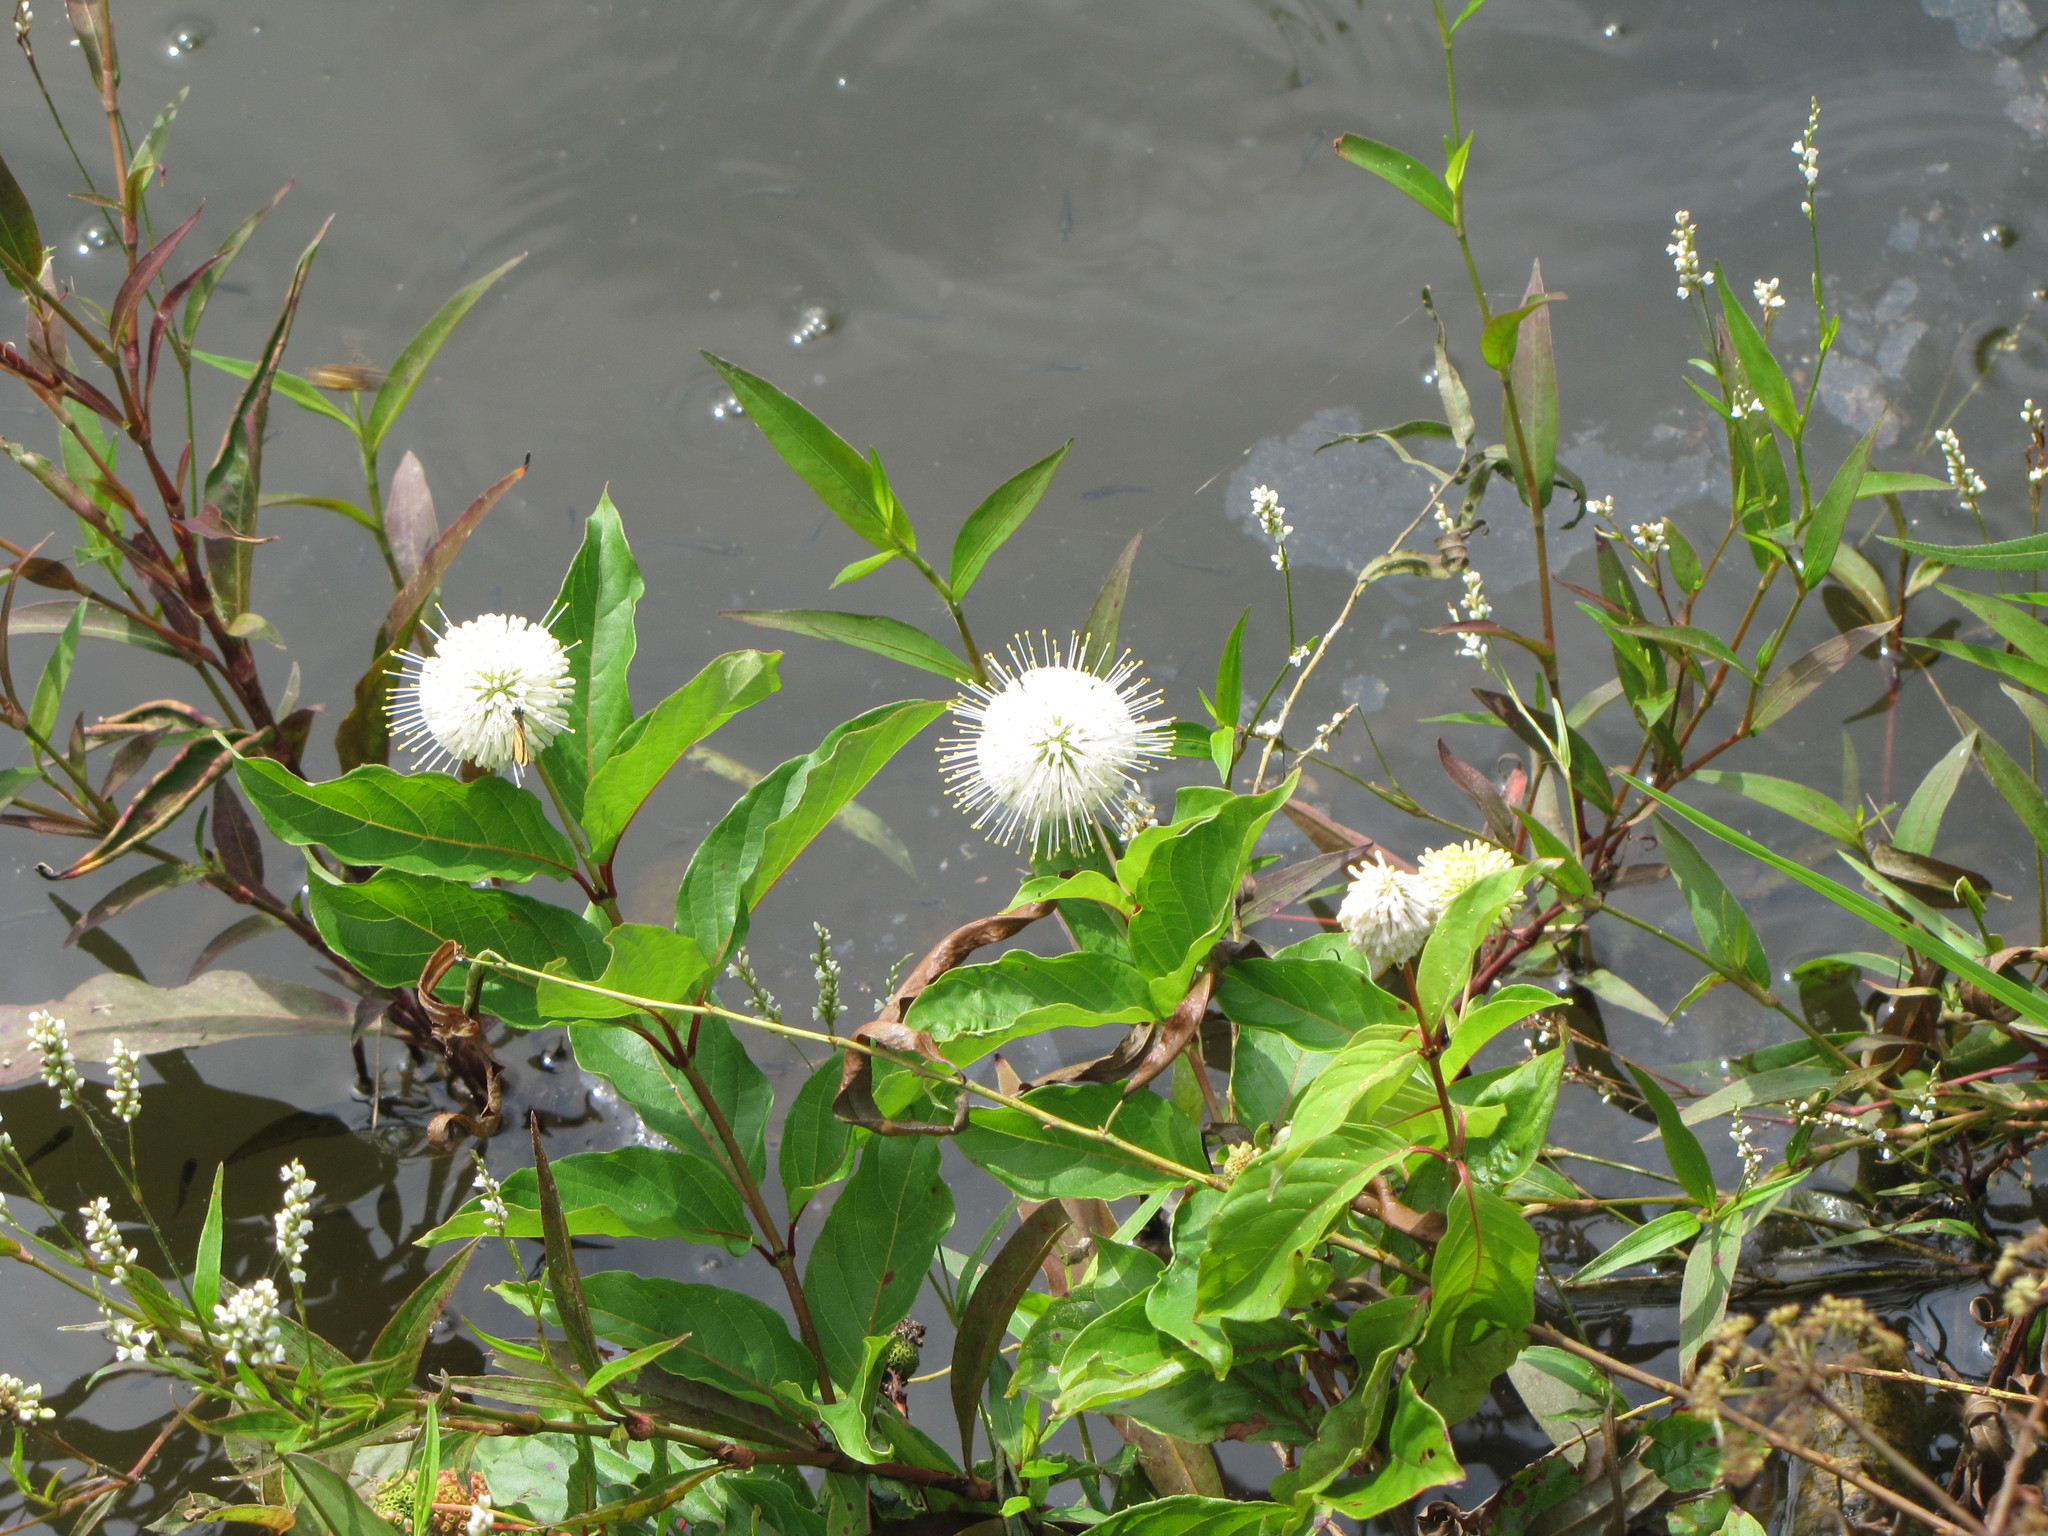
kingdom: Plantae
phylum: Tracheophyta
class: Magnoliopsida
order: Gentianales
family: Rubiaceae
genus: Cephalanthus
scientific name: Cephalanthus occidentalis
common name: Button-willow
